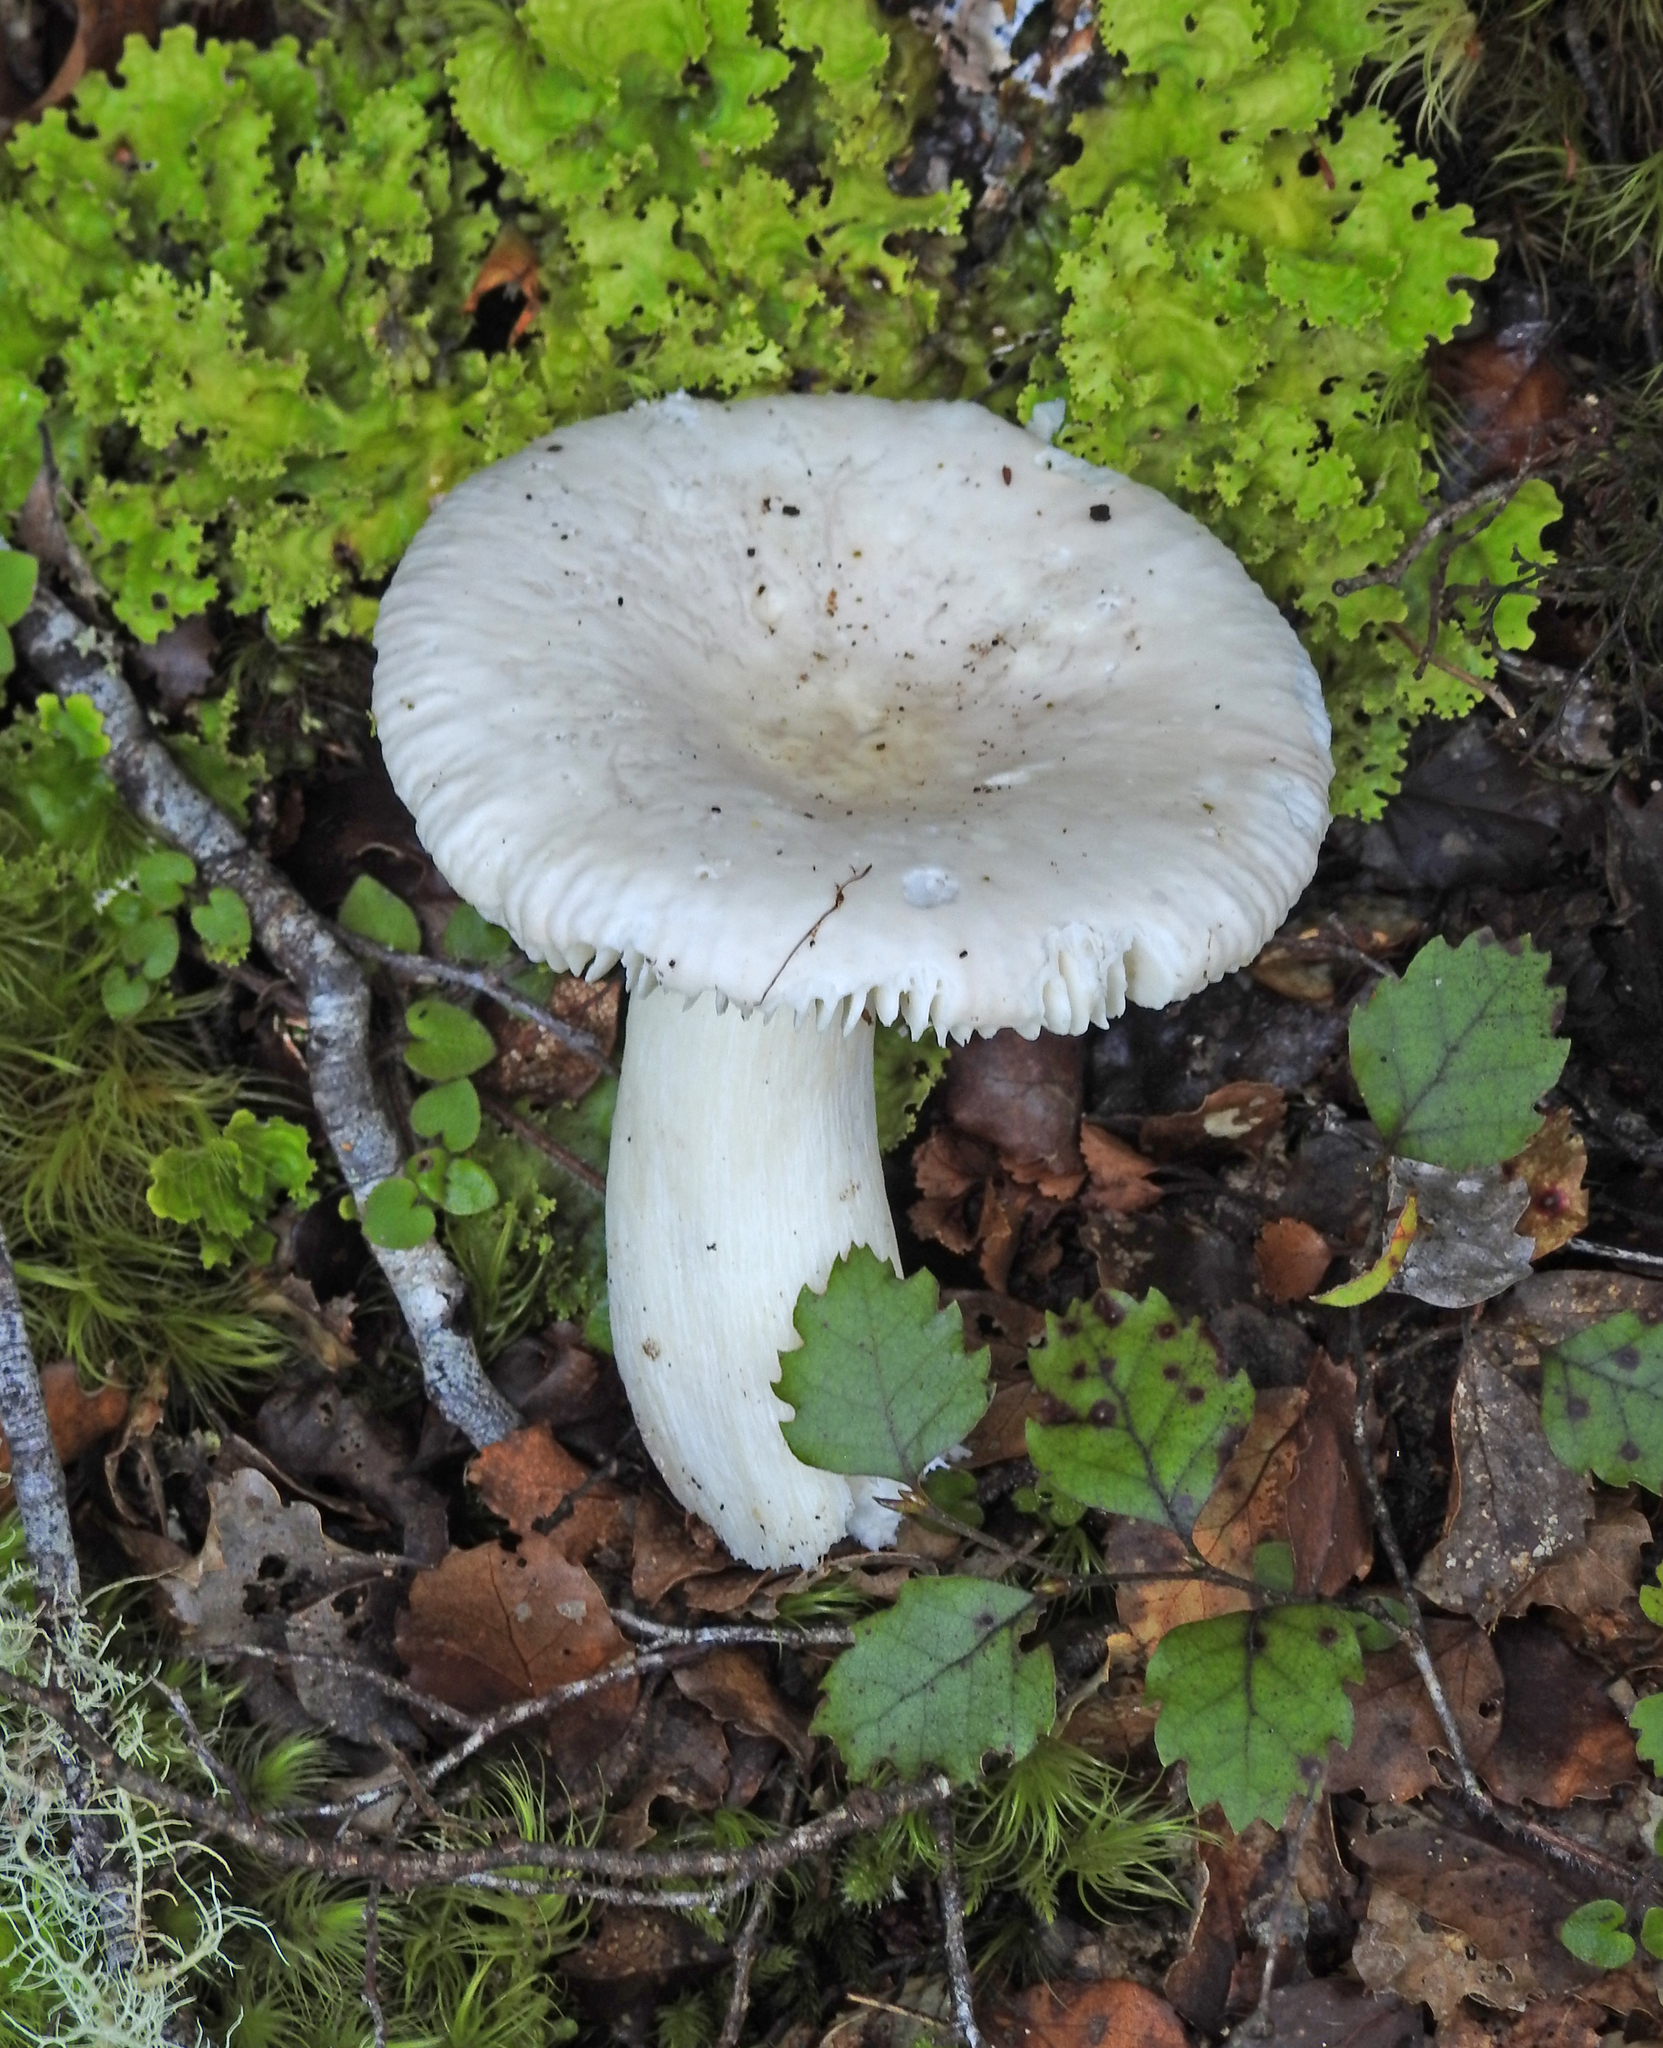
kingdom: Fungi
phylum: Basidiomycota
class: Agaricomycetes
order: Russulales
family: Russulaceae
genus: Russula
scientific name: Russula purpureotincta
